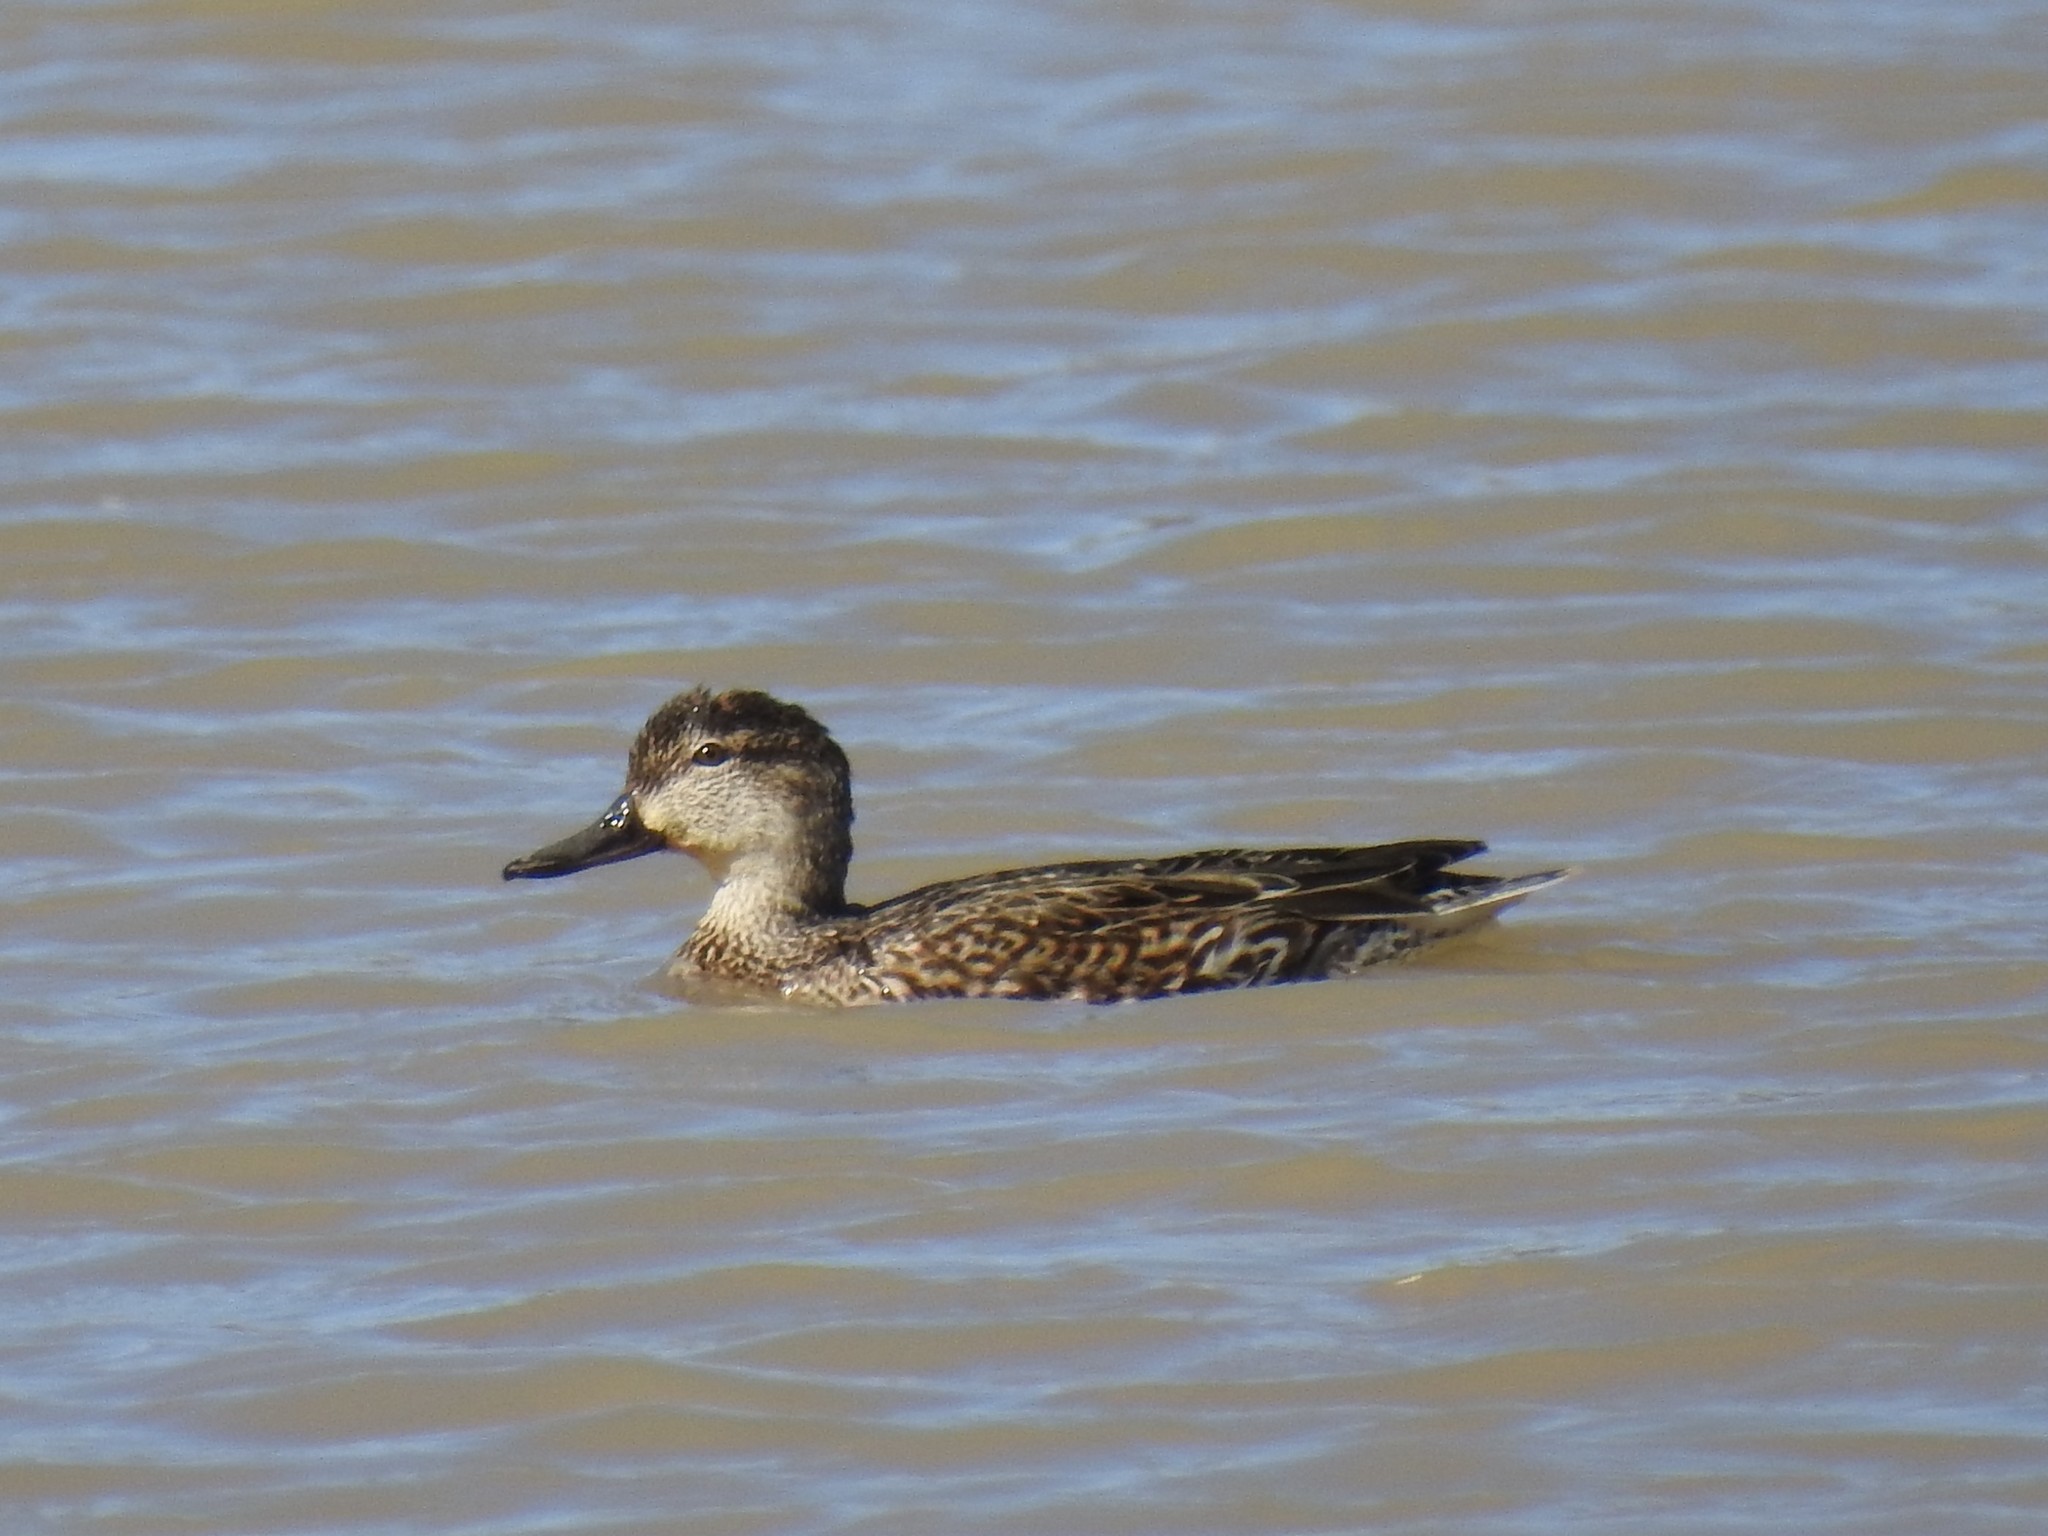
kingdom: Animalia
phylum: Chordata
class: Aves
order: Anseriformes
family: Anatidae
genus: Anas
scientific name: Anas crecca
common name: Eurasian teal
